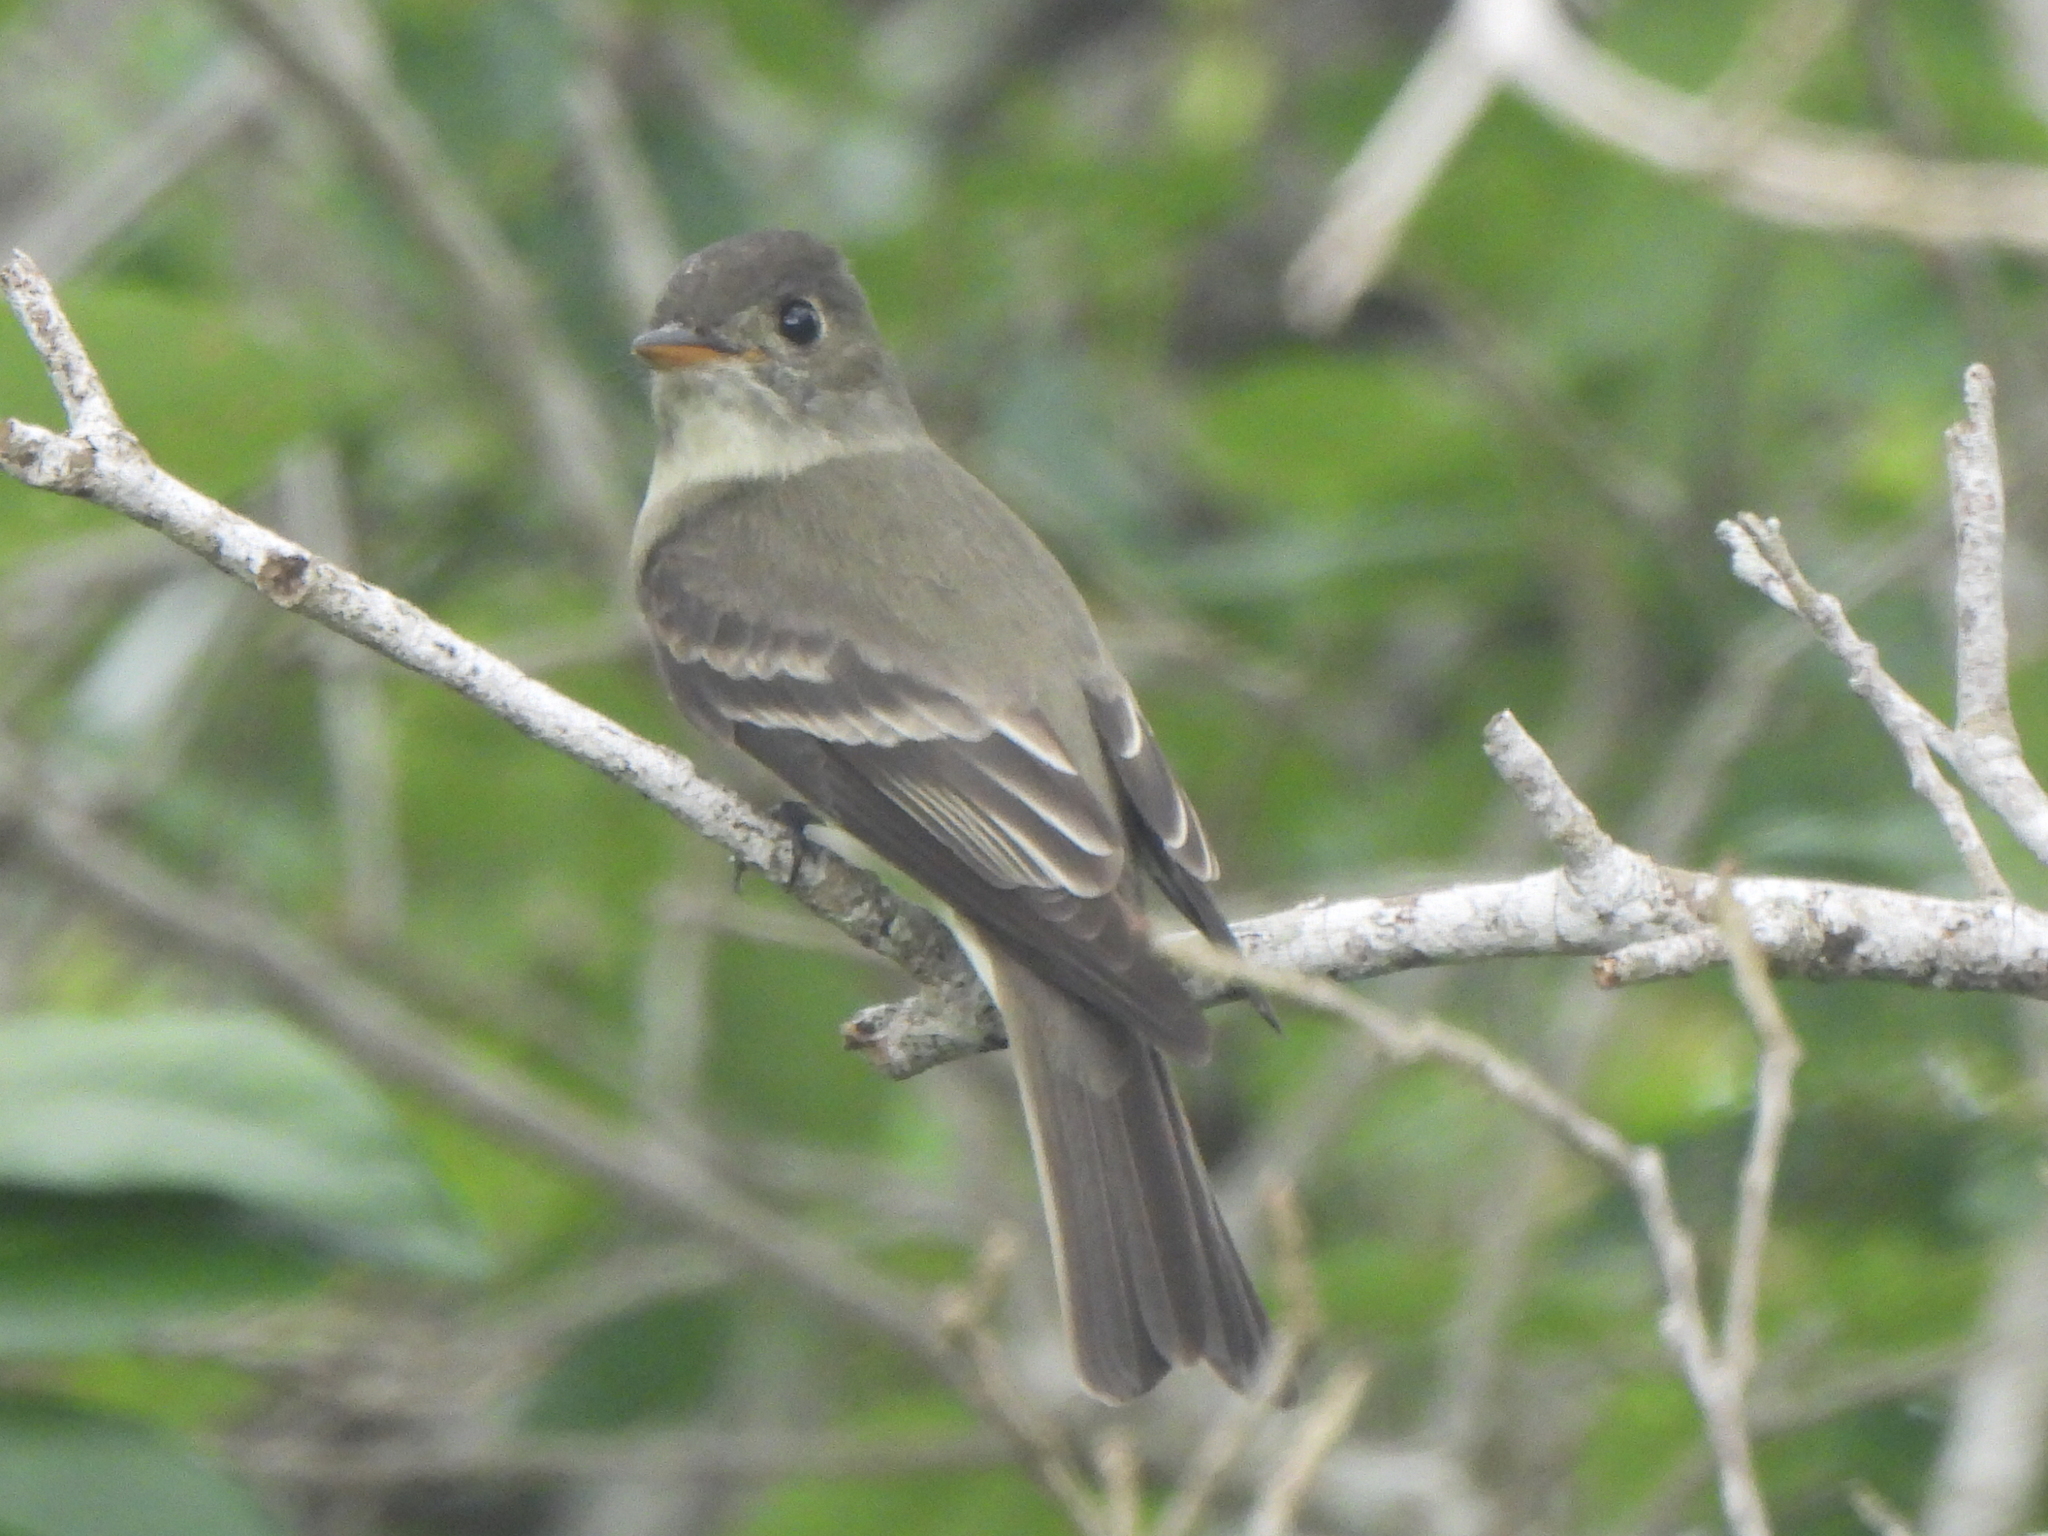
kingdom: Animalia
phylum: Chordata
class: Aves
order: Passeriformes
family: Tyrannidae
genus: Contopus
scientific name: Contopus virens
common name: Eastern wood-pewee
